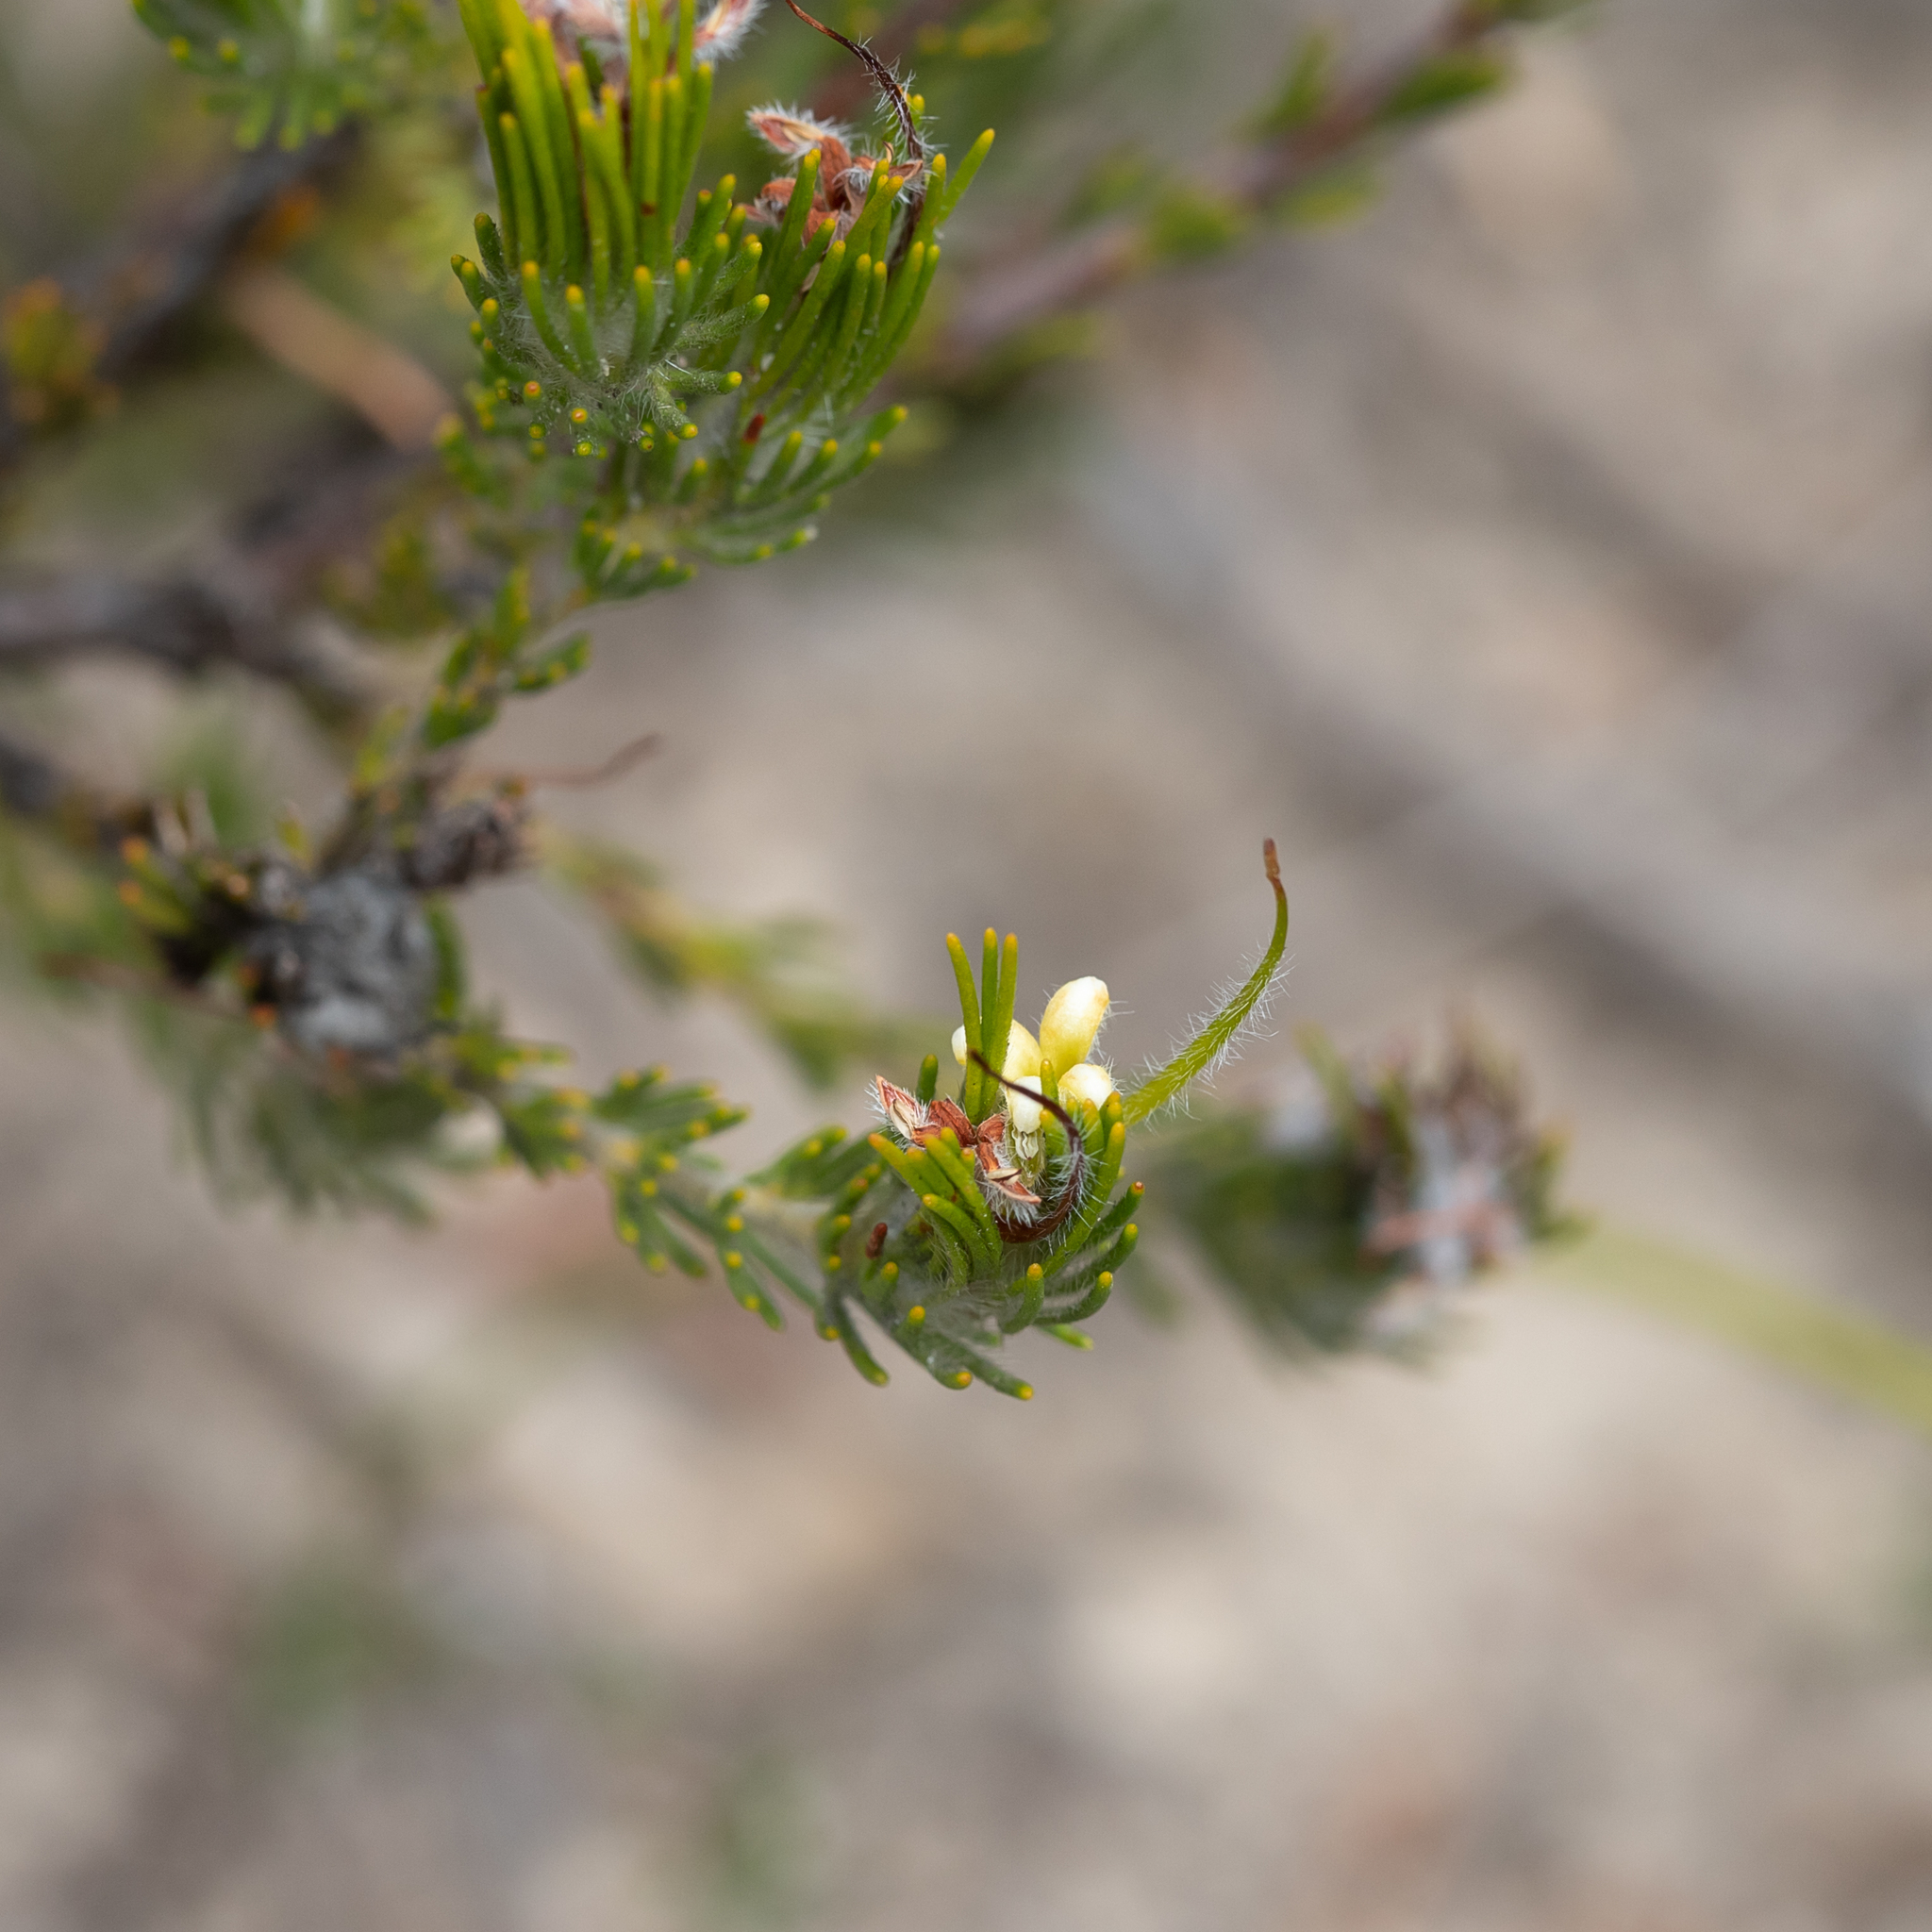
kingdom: Plantae
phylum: Tracheophyta
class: Magnoliopsida
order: Proteales
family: Proteaceae
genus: Adenanthos
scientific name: Adenanthos terminalis
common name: Yellow gland-flower
